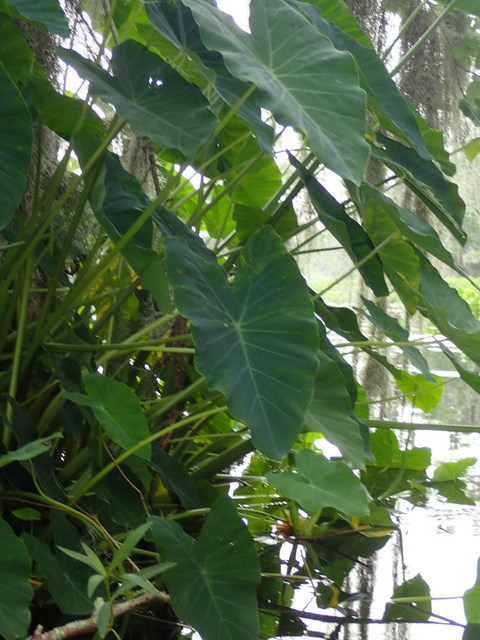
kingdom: Plantae
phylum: Tracheophyta
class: Liliopsida
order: Alismatales
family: Araceae
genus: Colocasia
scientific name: Colocasia esculenta
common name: Taro
